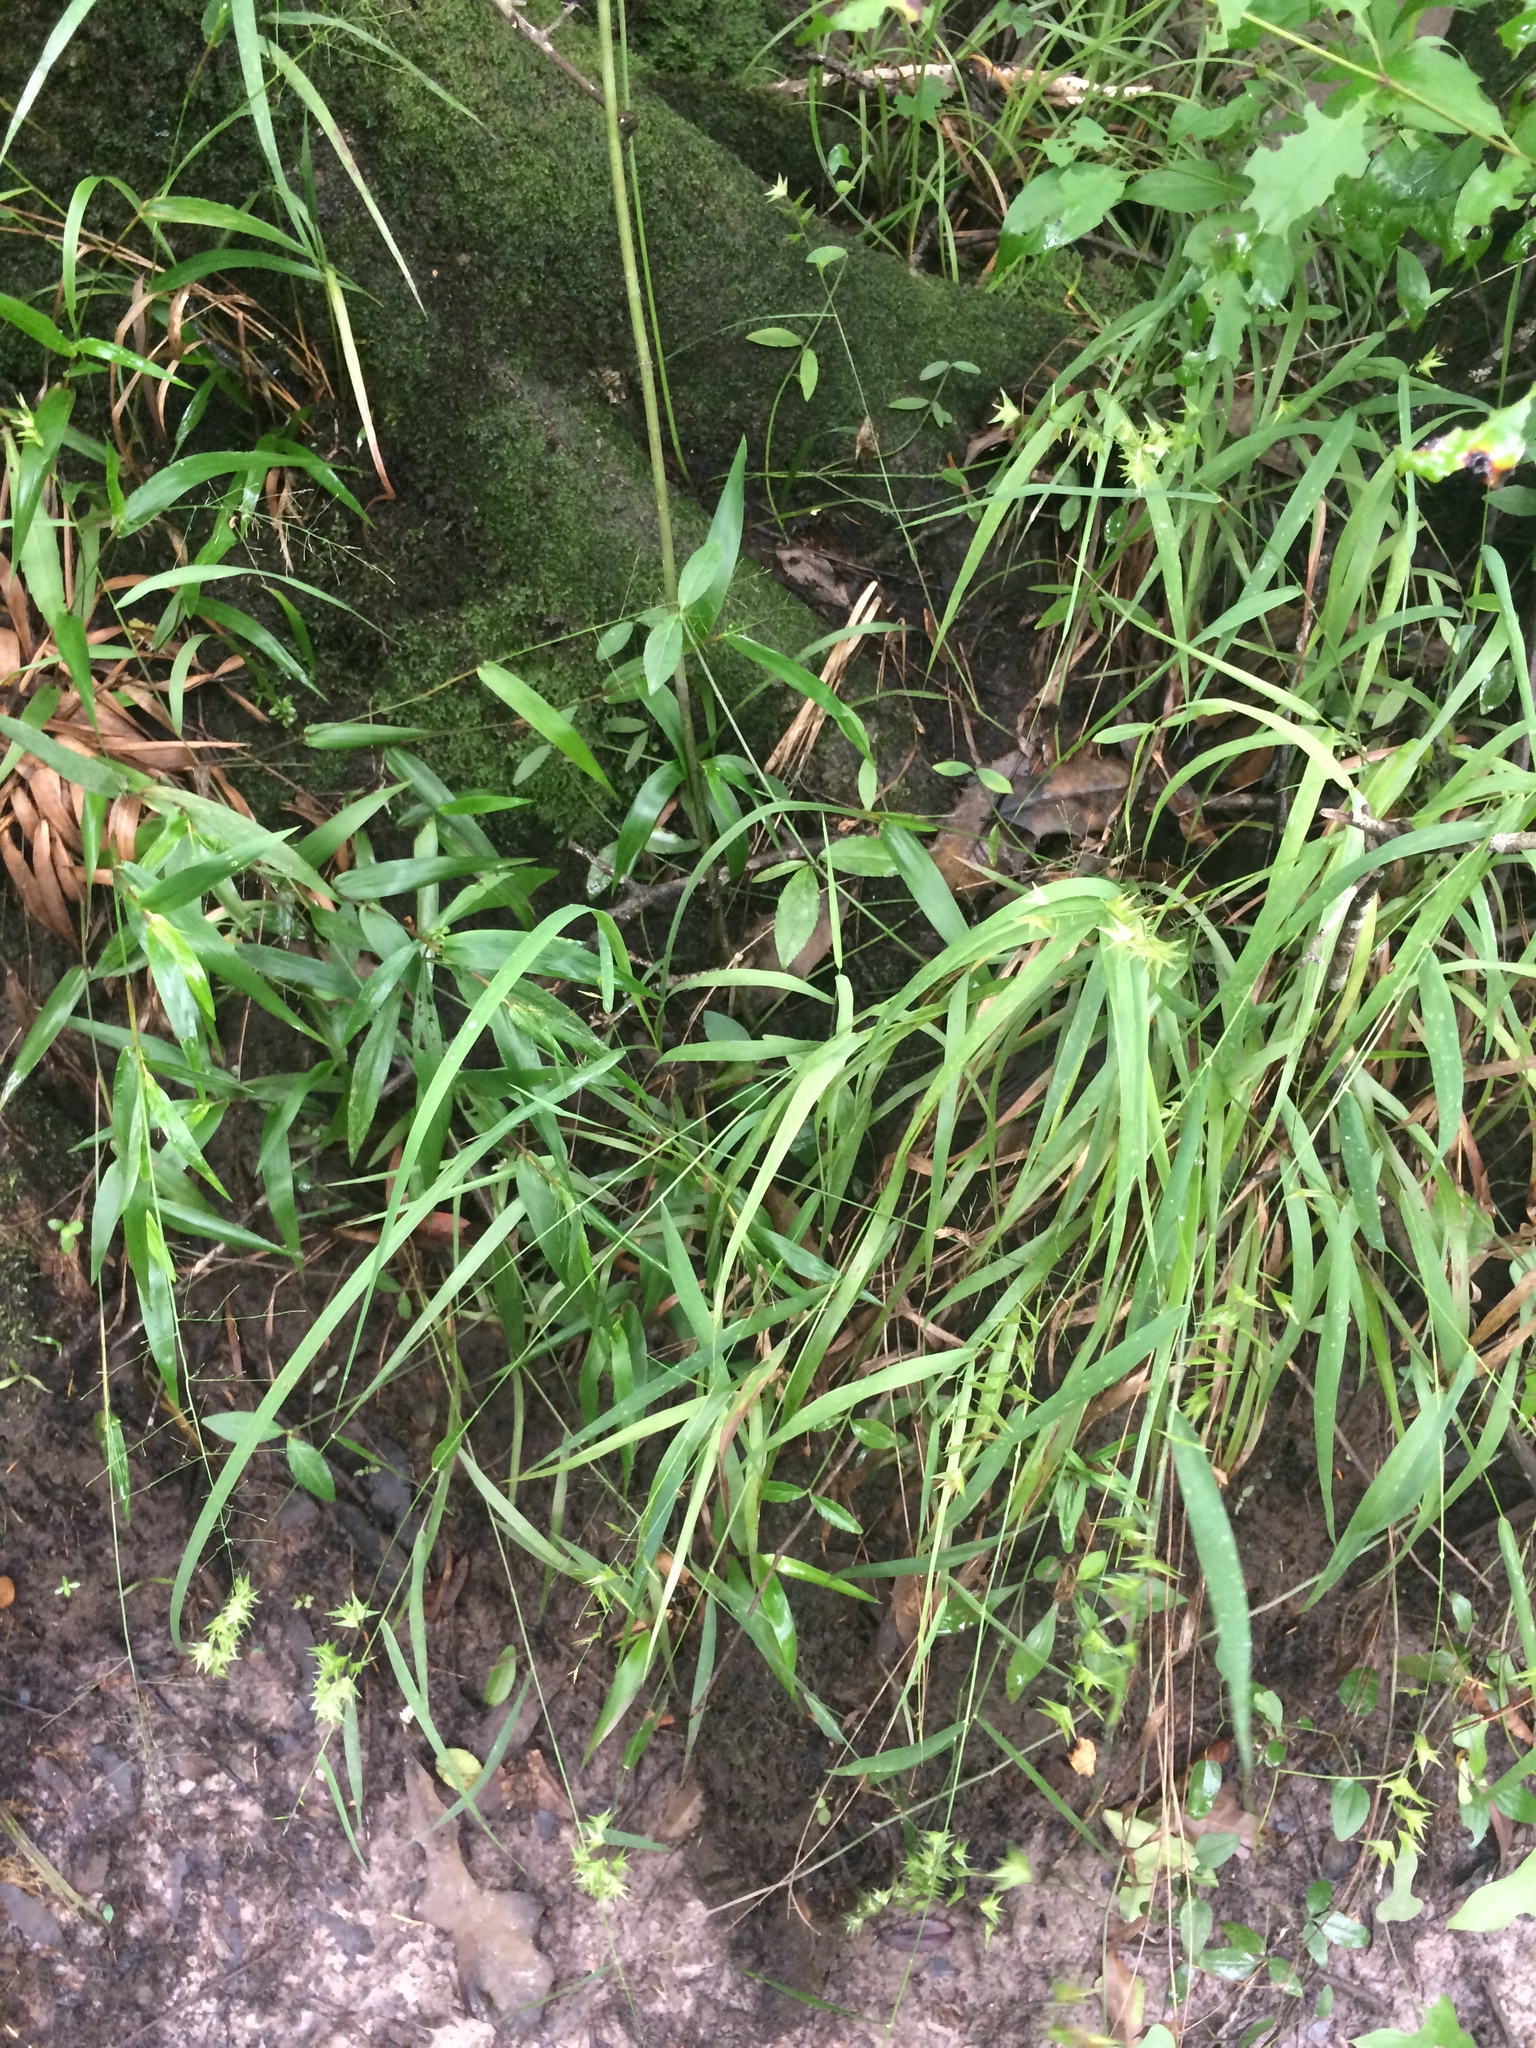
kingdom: Plantae
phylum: Tracheophyta
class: Liliopsida
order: Poales
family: Poaceae
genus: Chasmanthium
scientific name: Chasmanthium ornithorhynchum
